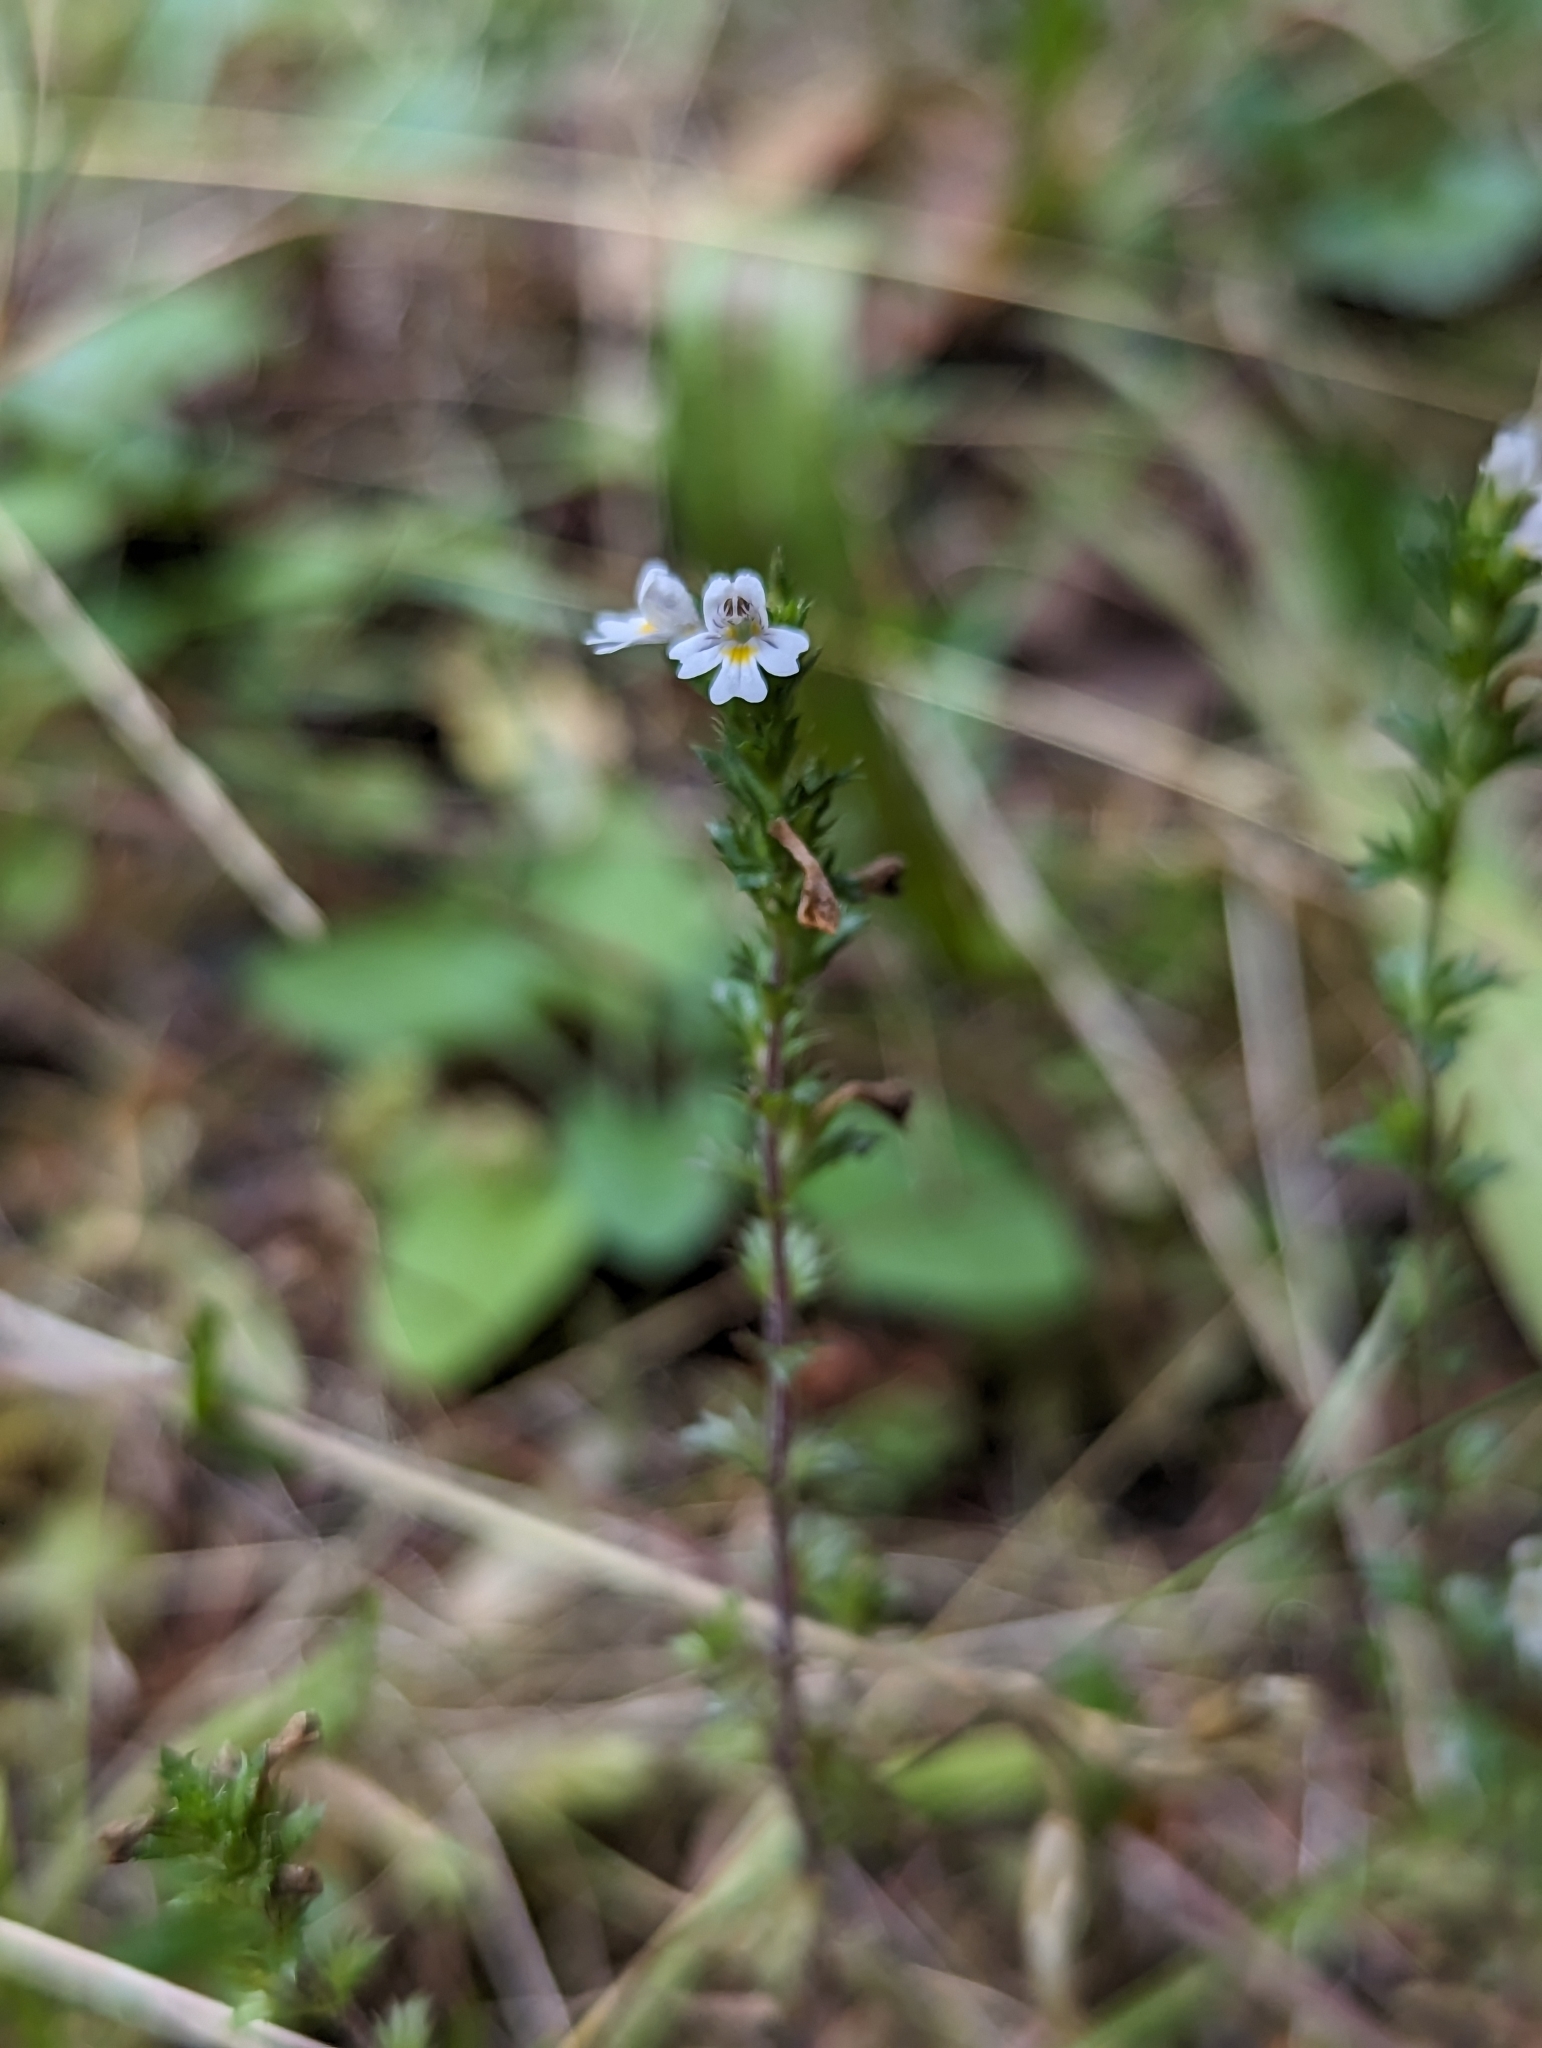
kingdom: Plantae
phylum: Tracheophyta
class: Magnoliopsida
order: Lamiales
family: Orobanchaceae
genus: Euphrasia
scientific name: Euphrasia nemorosa
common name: Common eyebright
